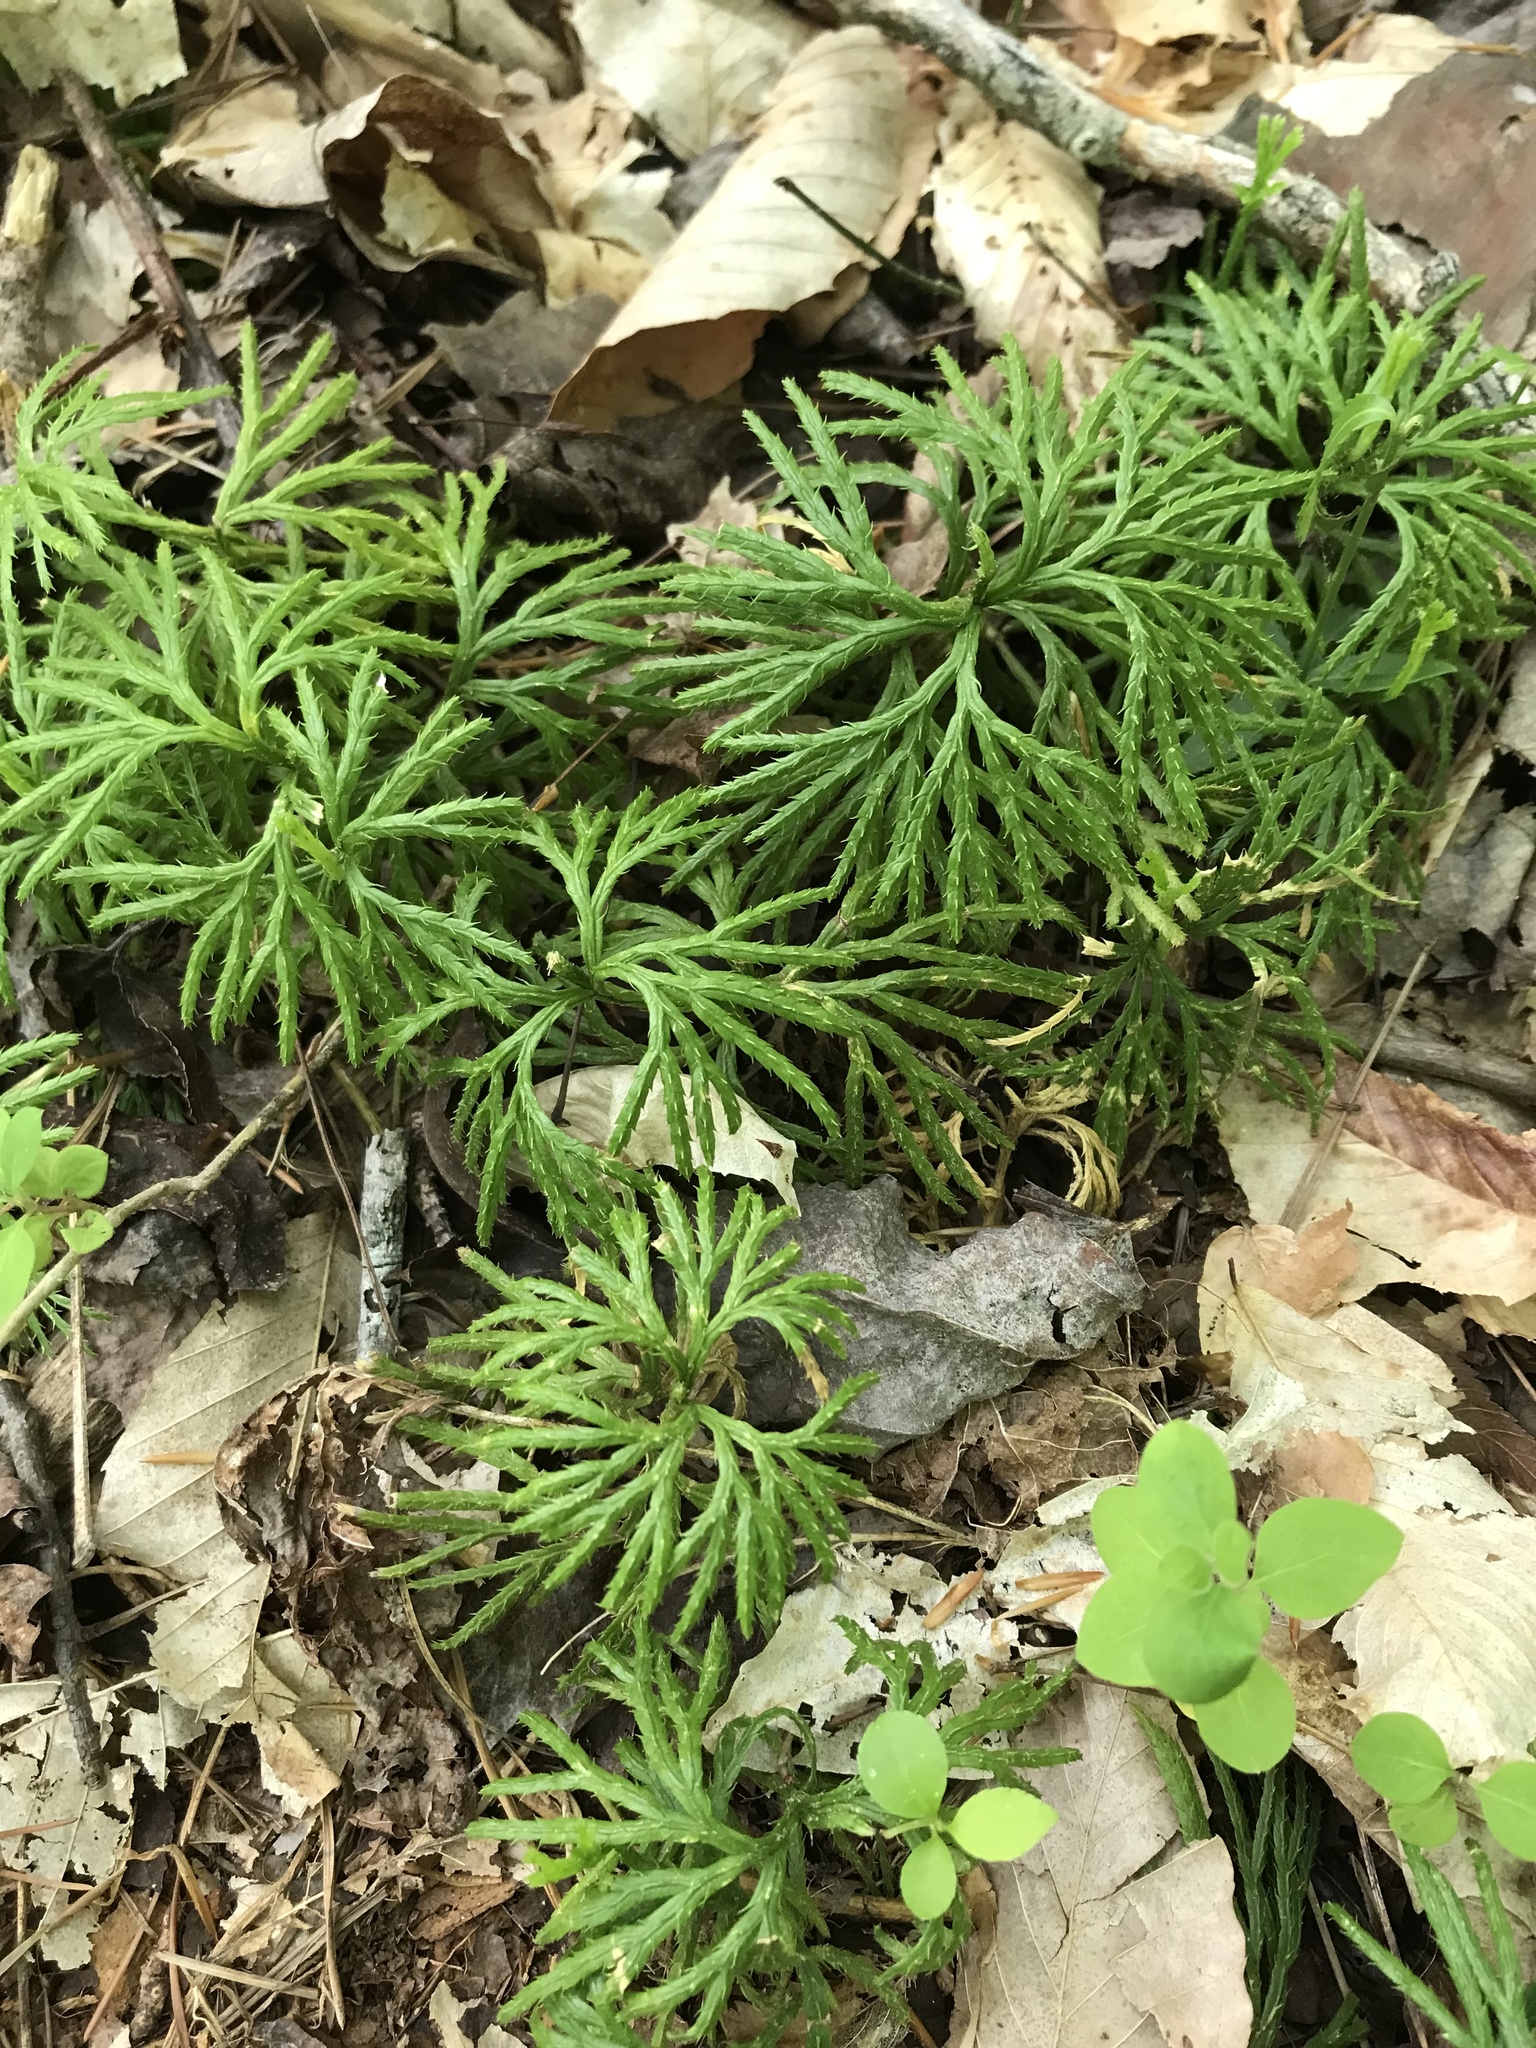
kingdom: Plantae
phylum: Tracheophyta
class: Lycopodiopsida
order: Lycopodiales
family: Lycopodiaceae
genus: Diphasiastrum
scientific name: Diphasiastrum digitatum
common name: Southern running-pine
